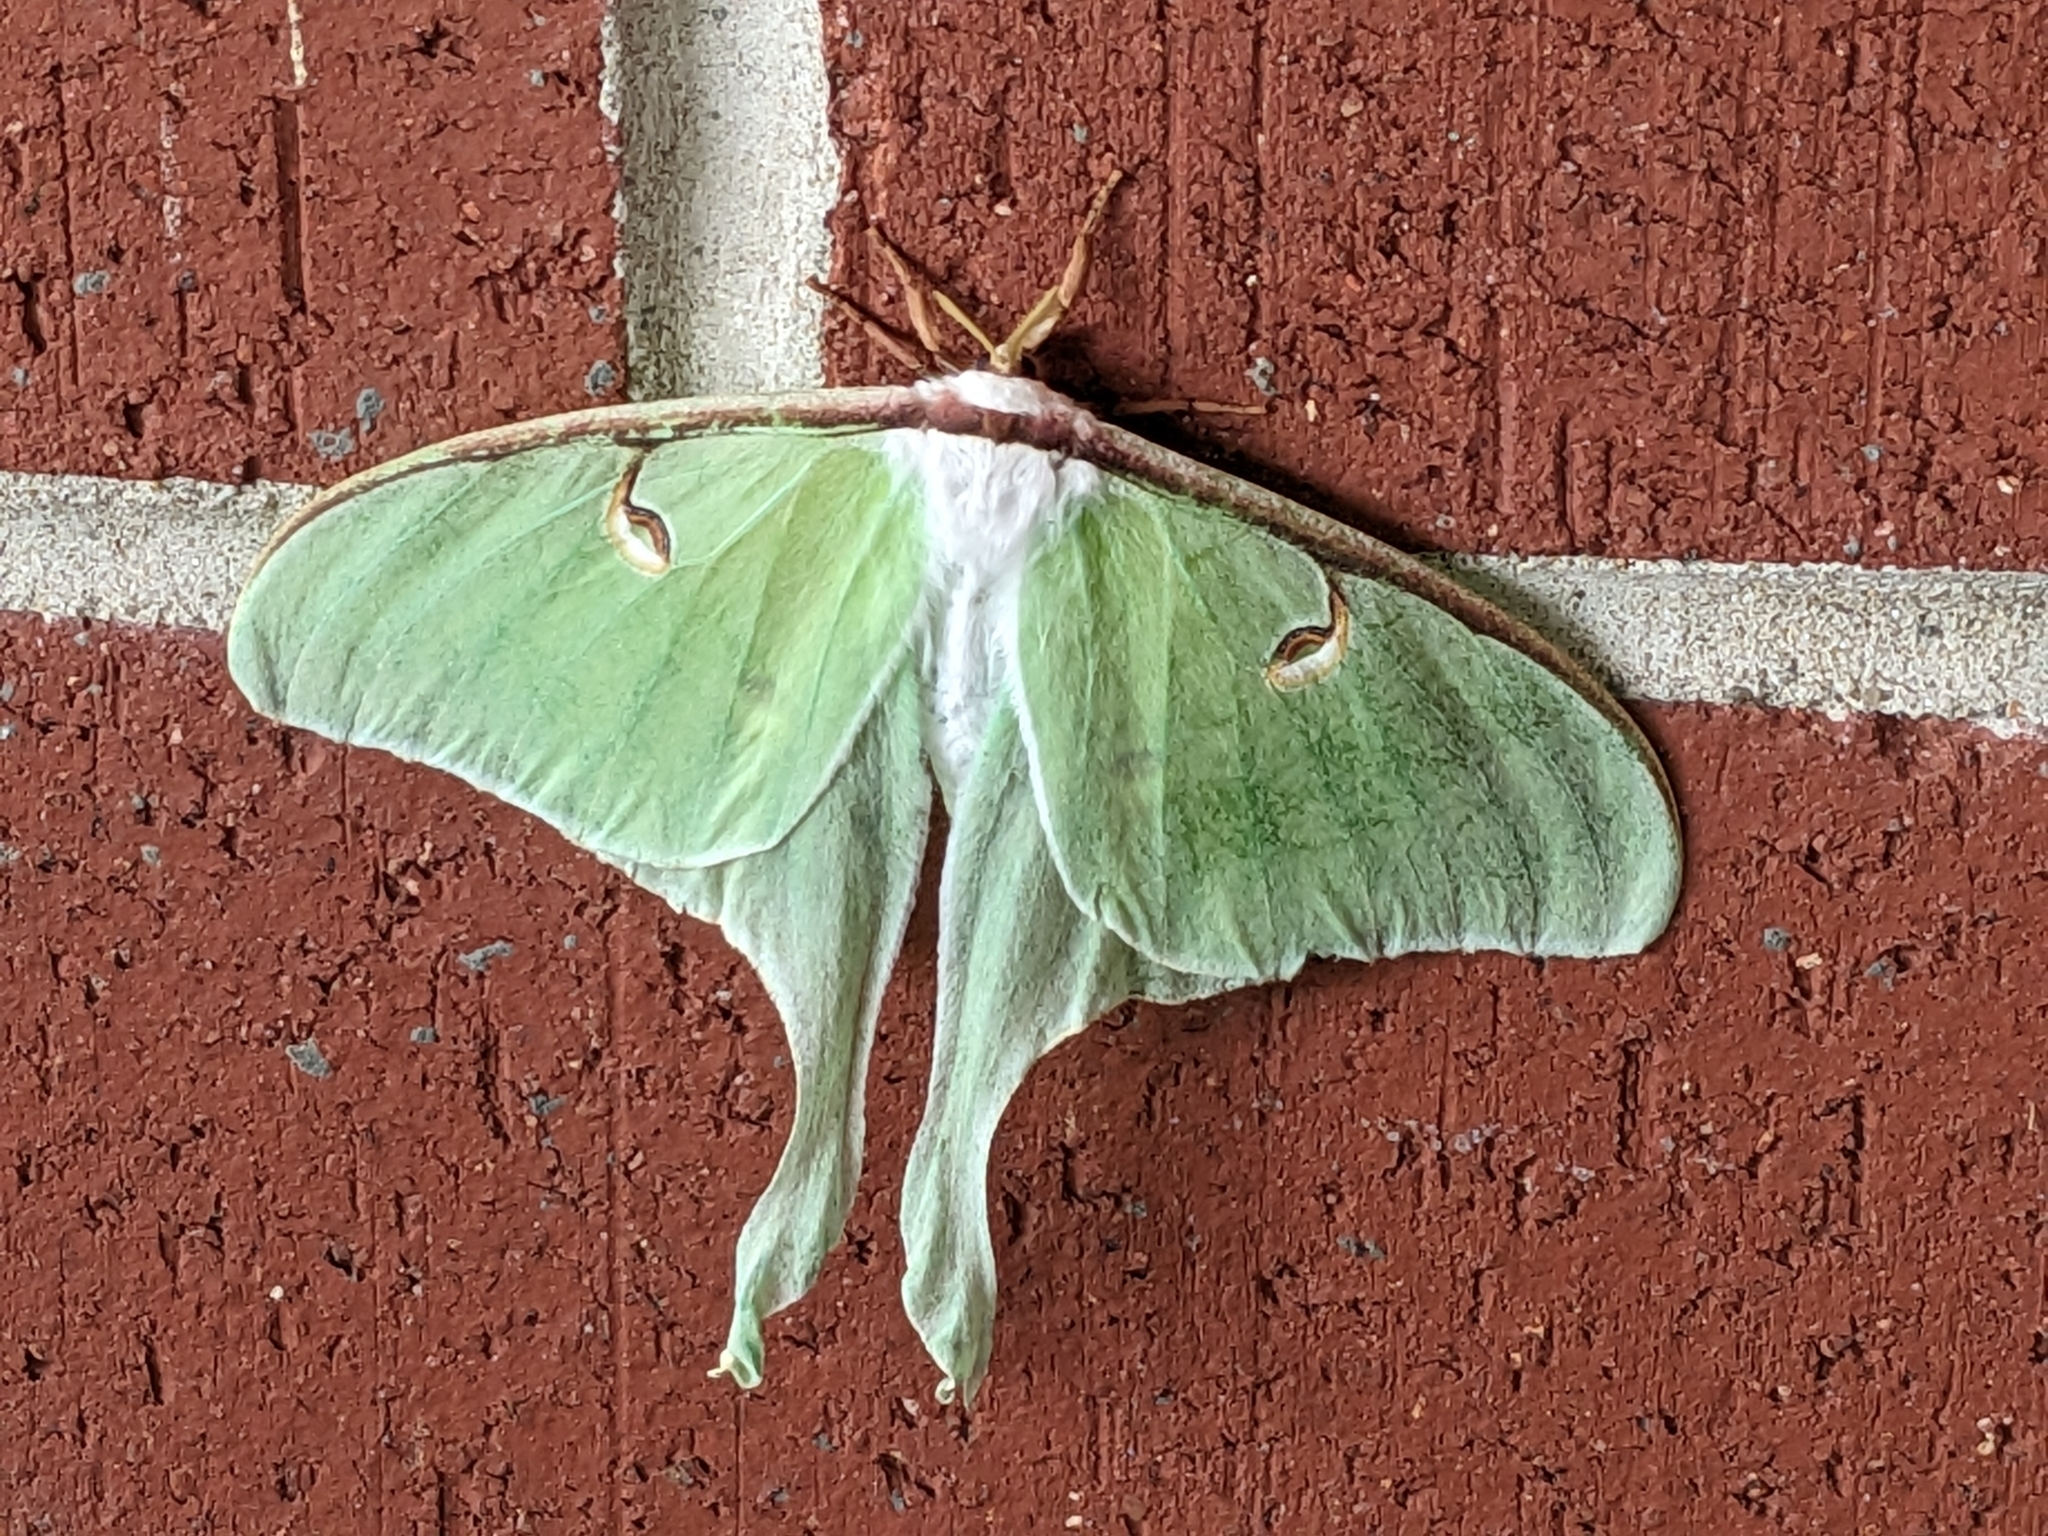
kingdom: Animalia
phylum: Arthropoda
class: Insecta
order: Lepidoptera
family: Saturniidae
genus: Actias
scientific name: Actias luna
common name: Luna moth
